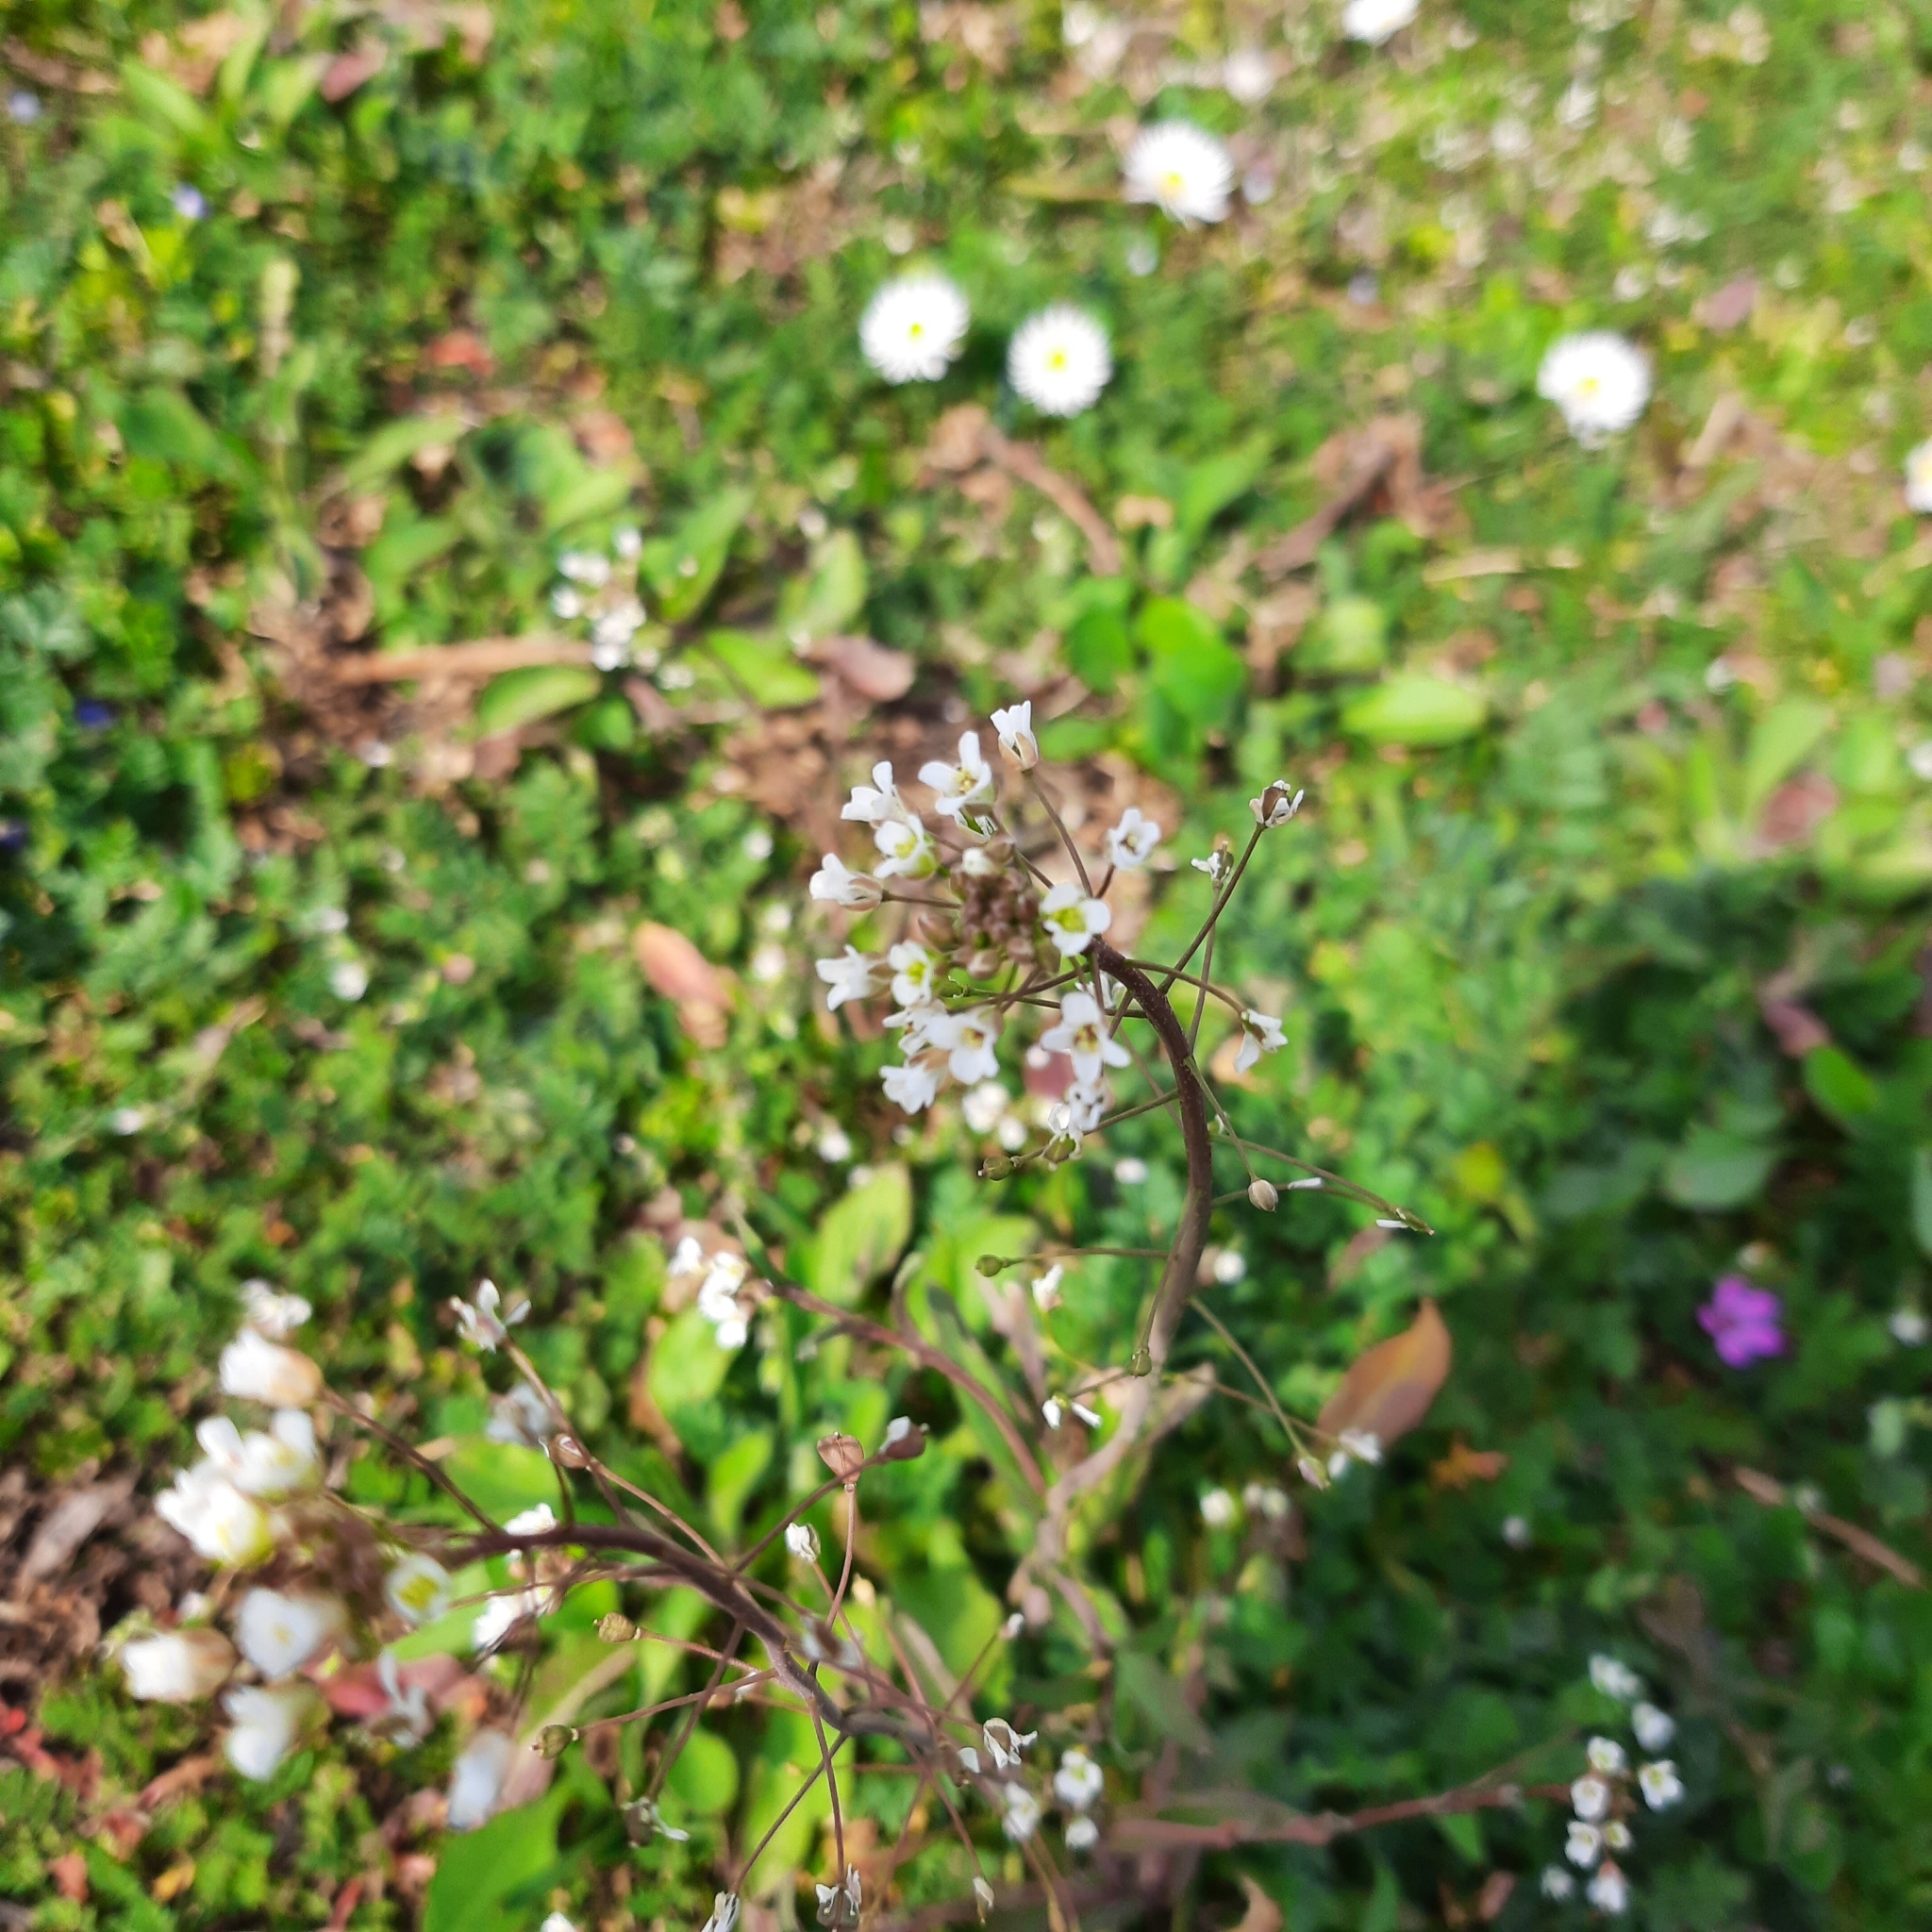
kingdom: Plantae
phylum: Tracheophyta
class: Magnoliopsida
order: Brassicales
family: Brassicaceae
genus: Capsella
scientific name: Capsella bursa-pastoris
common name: Shepherd's purse
